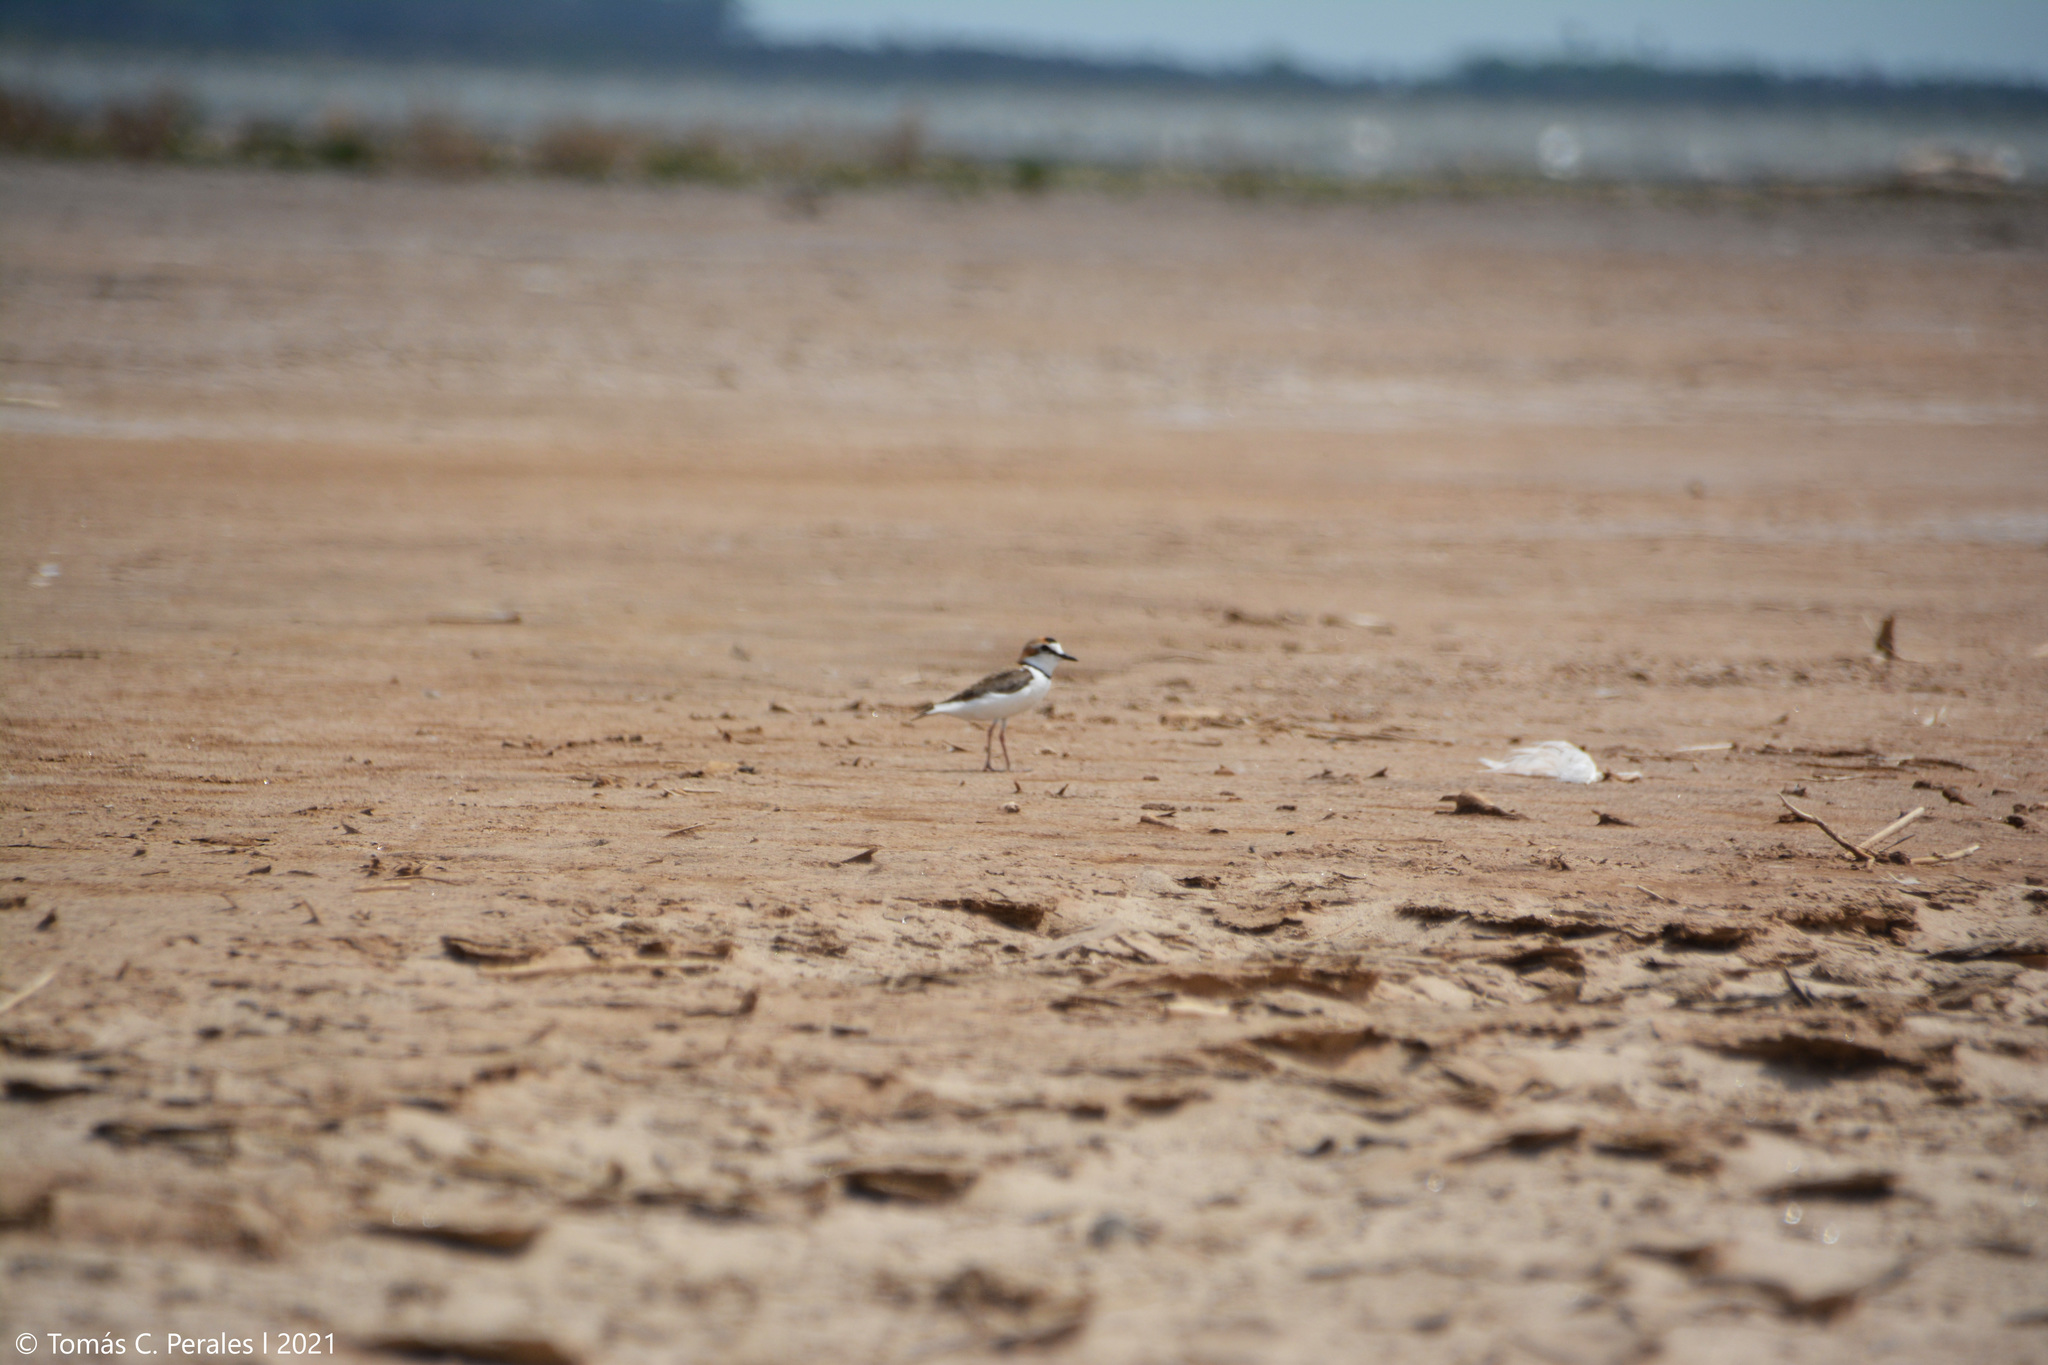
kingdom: Animalia
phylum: Chordata
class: Aves
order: Charadriiformes
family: Charadriidae
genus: Anarhynchus
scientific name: Anarhynchus
